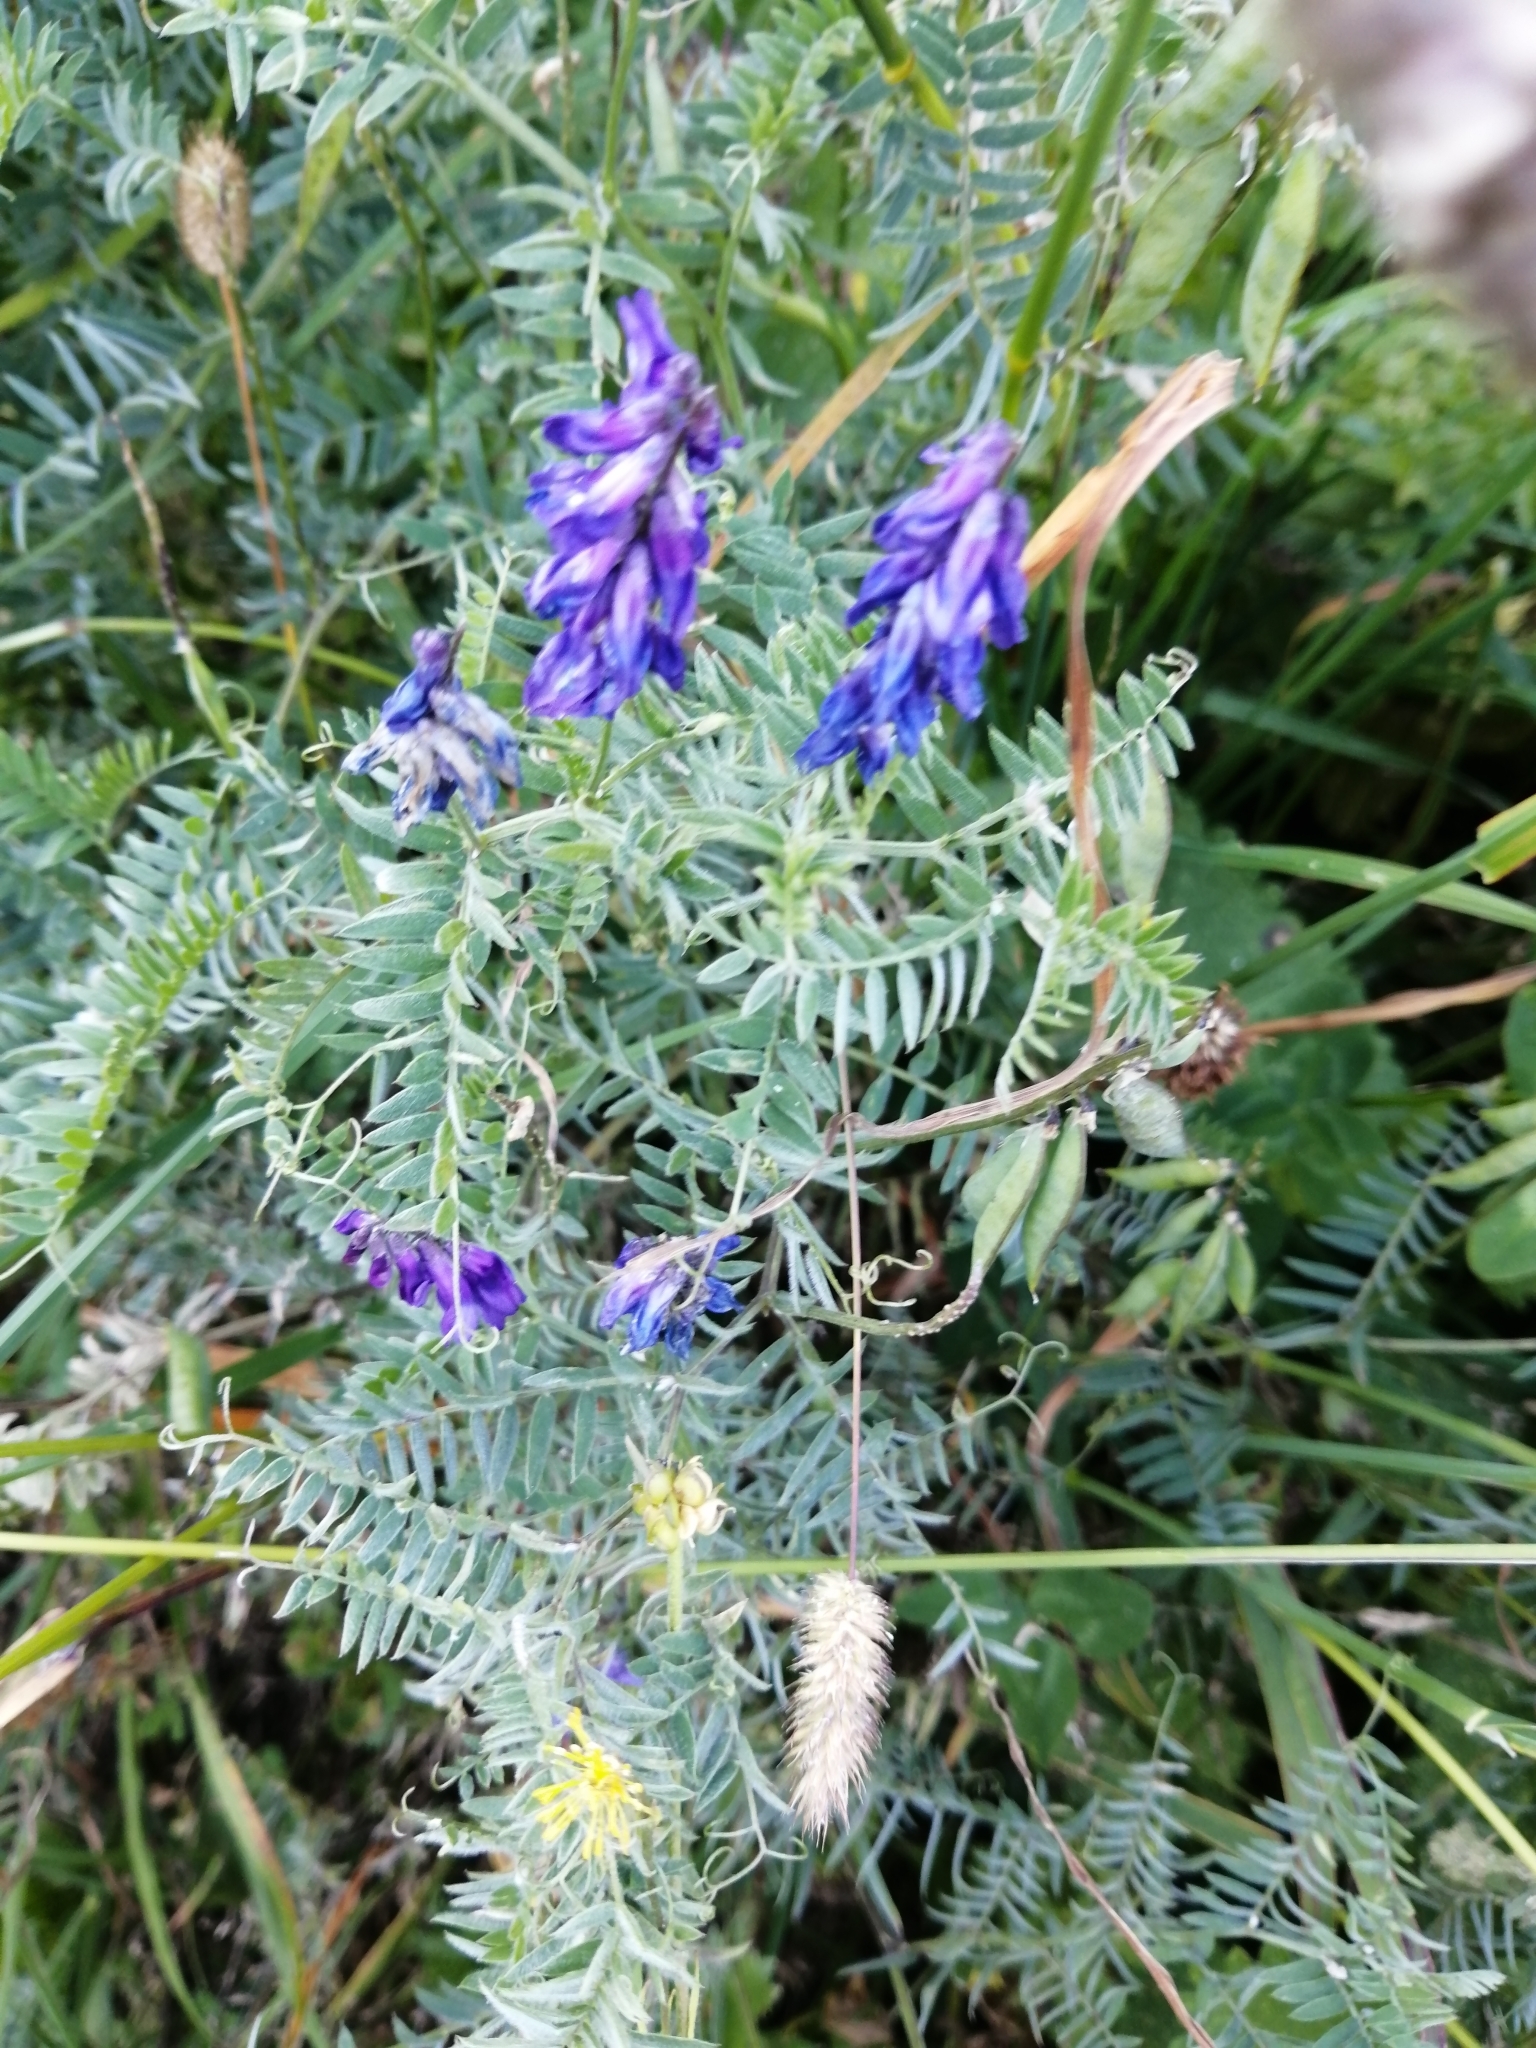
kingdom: Plantae
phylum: Tracheophyta
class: Magnoliopsida
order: Fabales
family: Fabaceae
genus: Vicia
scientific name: Vicia cracca
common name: Bird vetch
